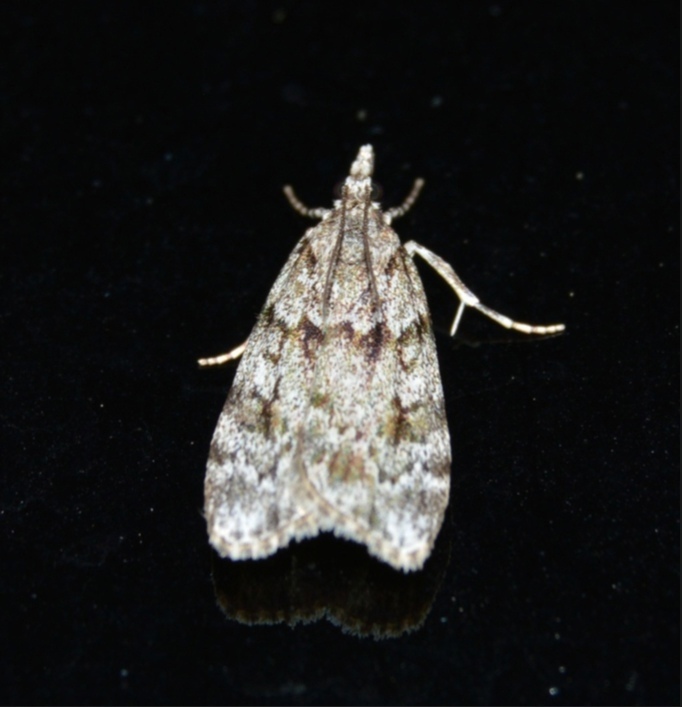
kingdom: Animalia
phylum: Arthropoda
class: Insecta
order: Lepidoptera
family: Crambidae
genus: Scoparia
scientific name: Scoparia basistrigalis
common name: Base-lined grey
